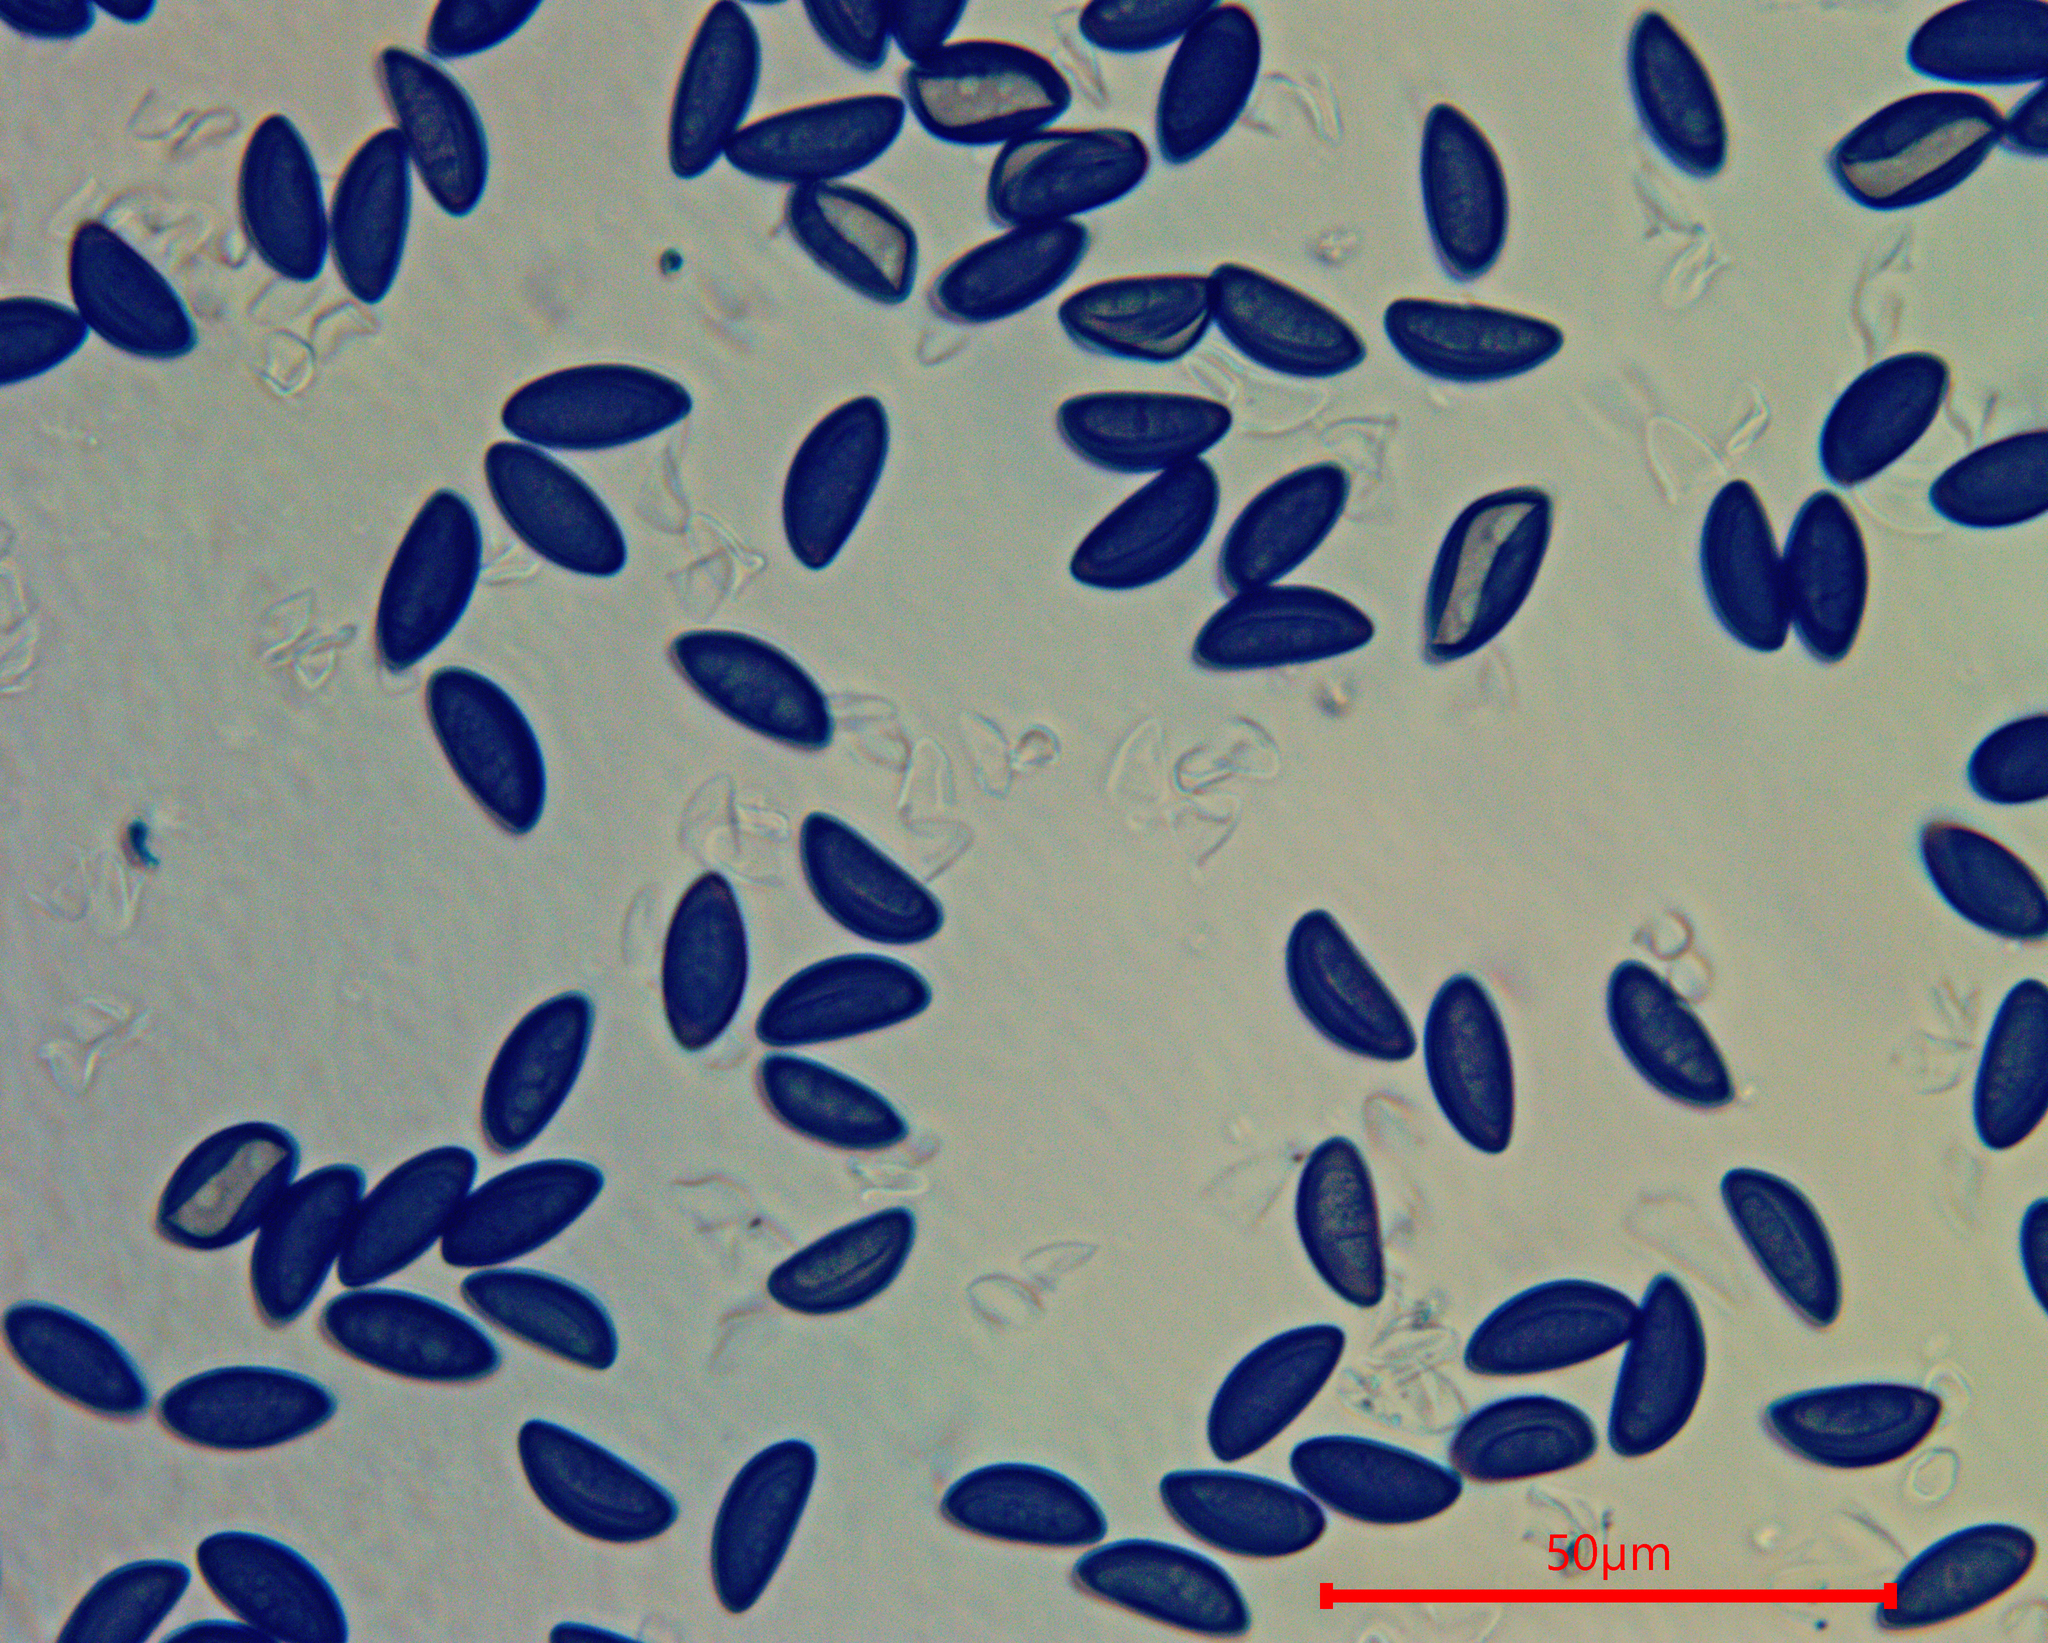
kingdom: Fungi
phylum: Ascomycota
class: Sordariomycetes
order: Xylariales
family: Hypoxylaceae
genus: Daldinia
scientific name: Daldinia dennisii
